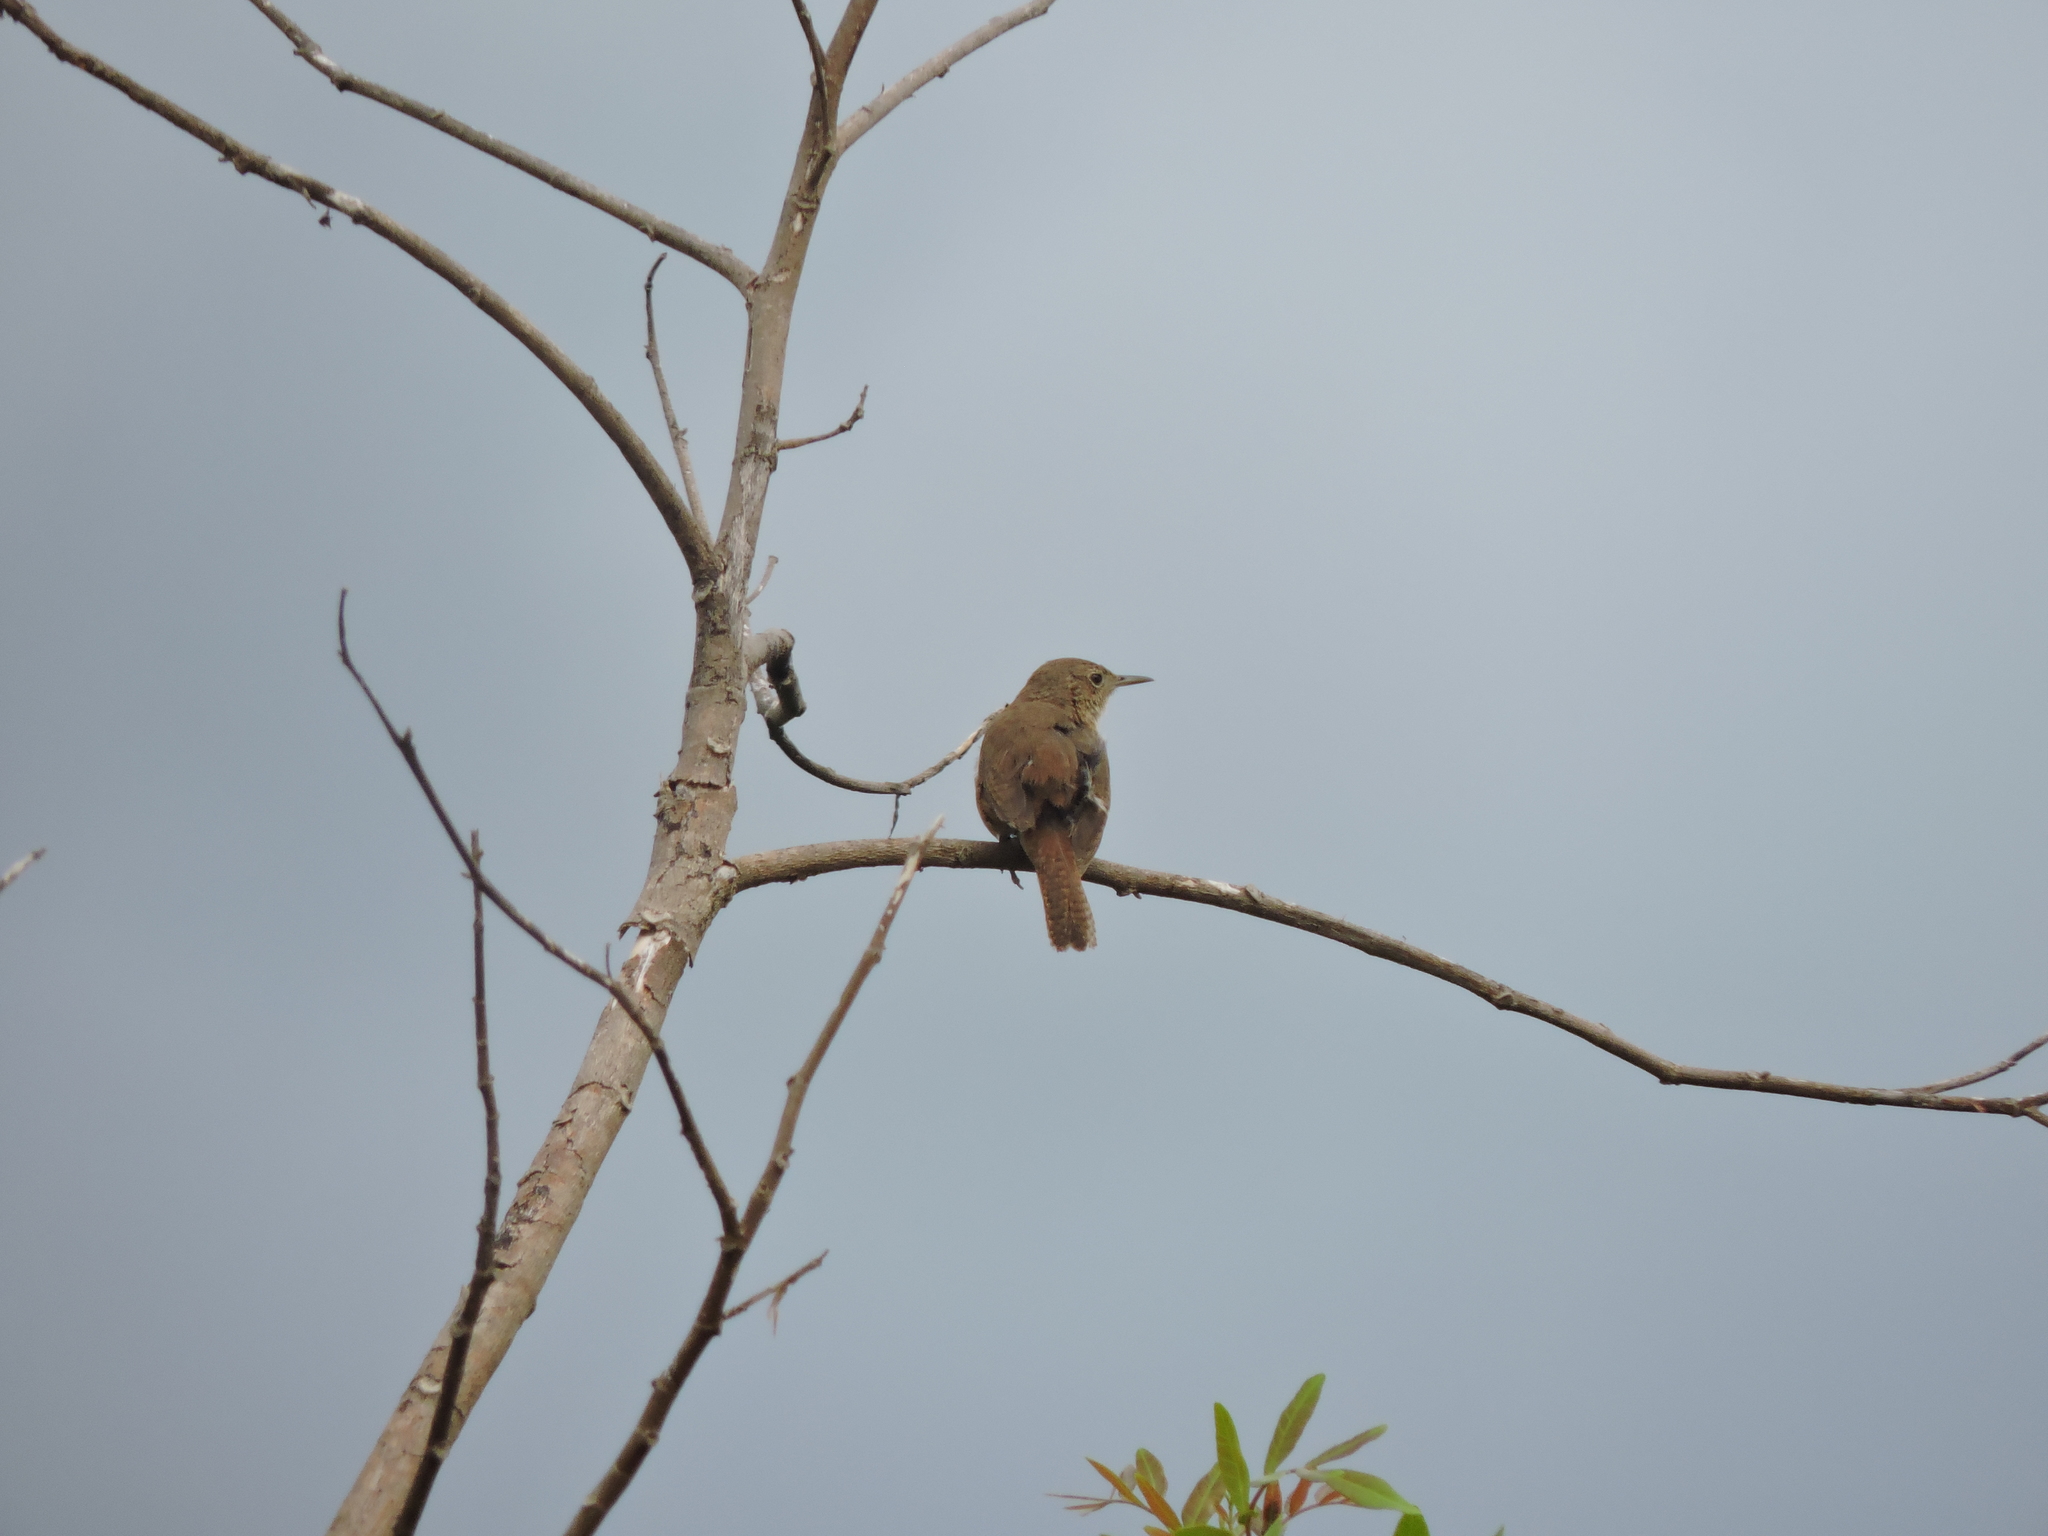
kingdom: Animalia
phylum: Chordata
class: Aves
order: Passeriformes
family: Troglodytidae
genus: Troglodytes
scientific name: Troglodytes aedon
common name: House wren
